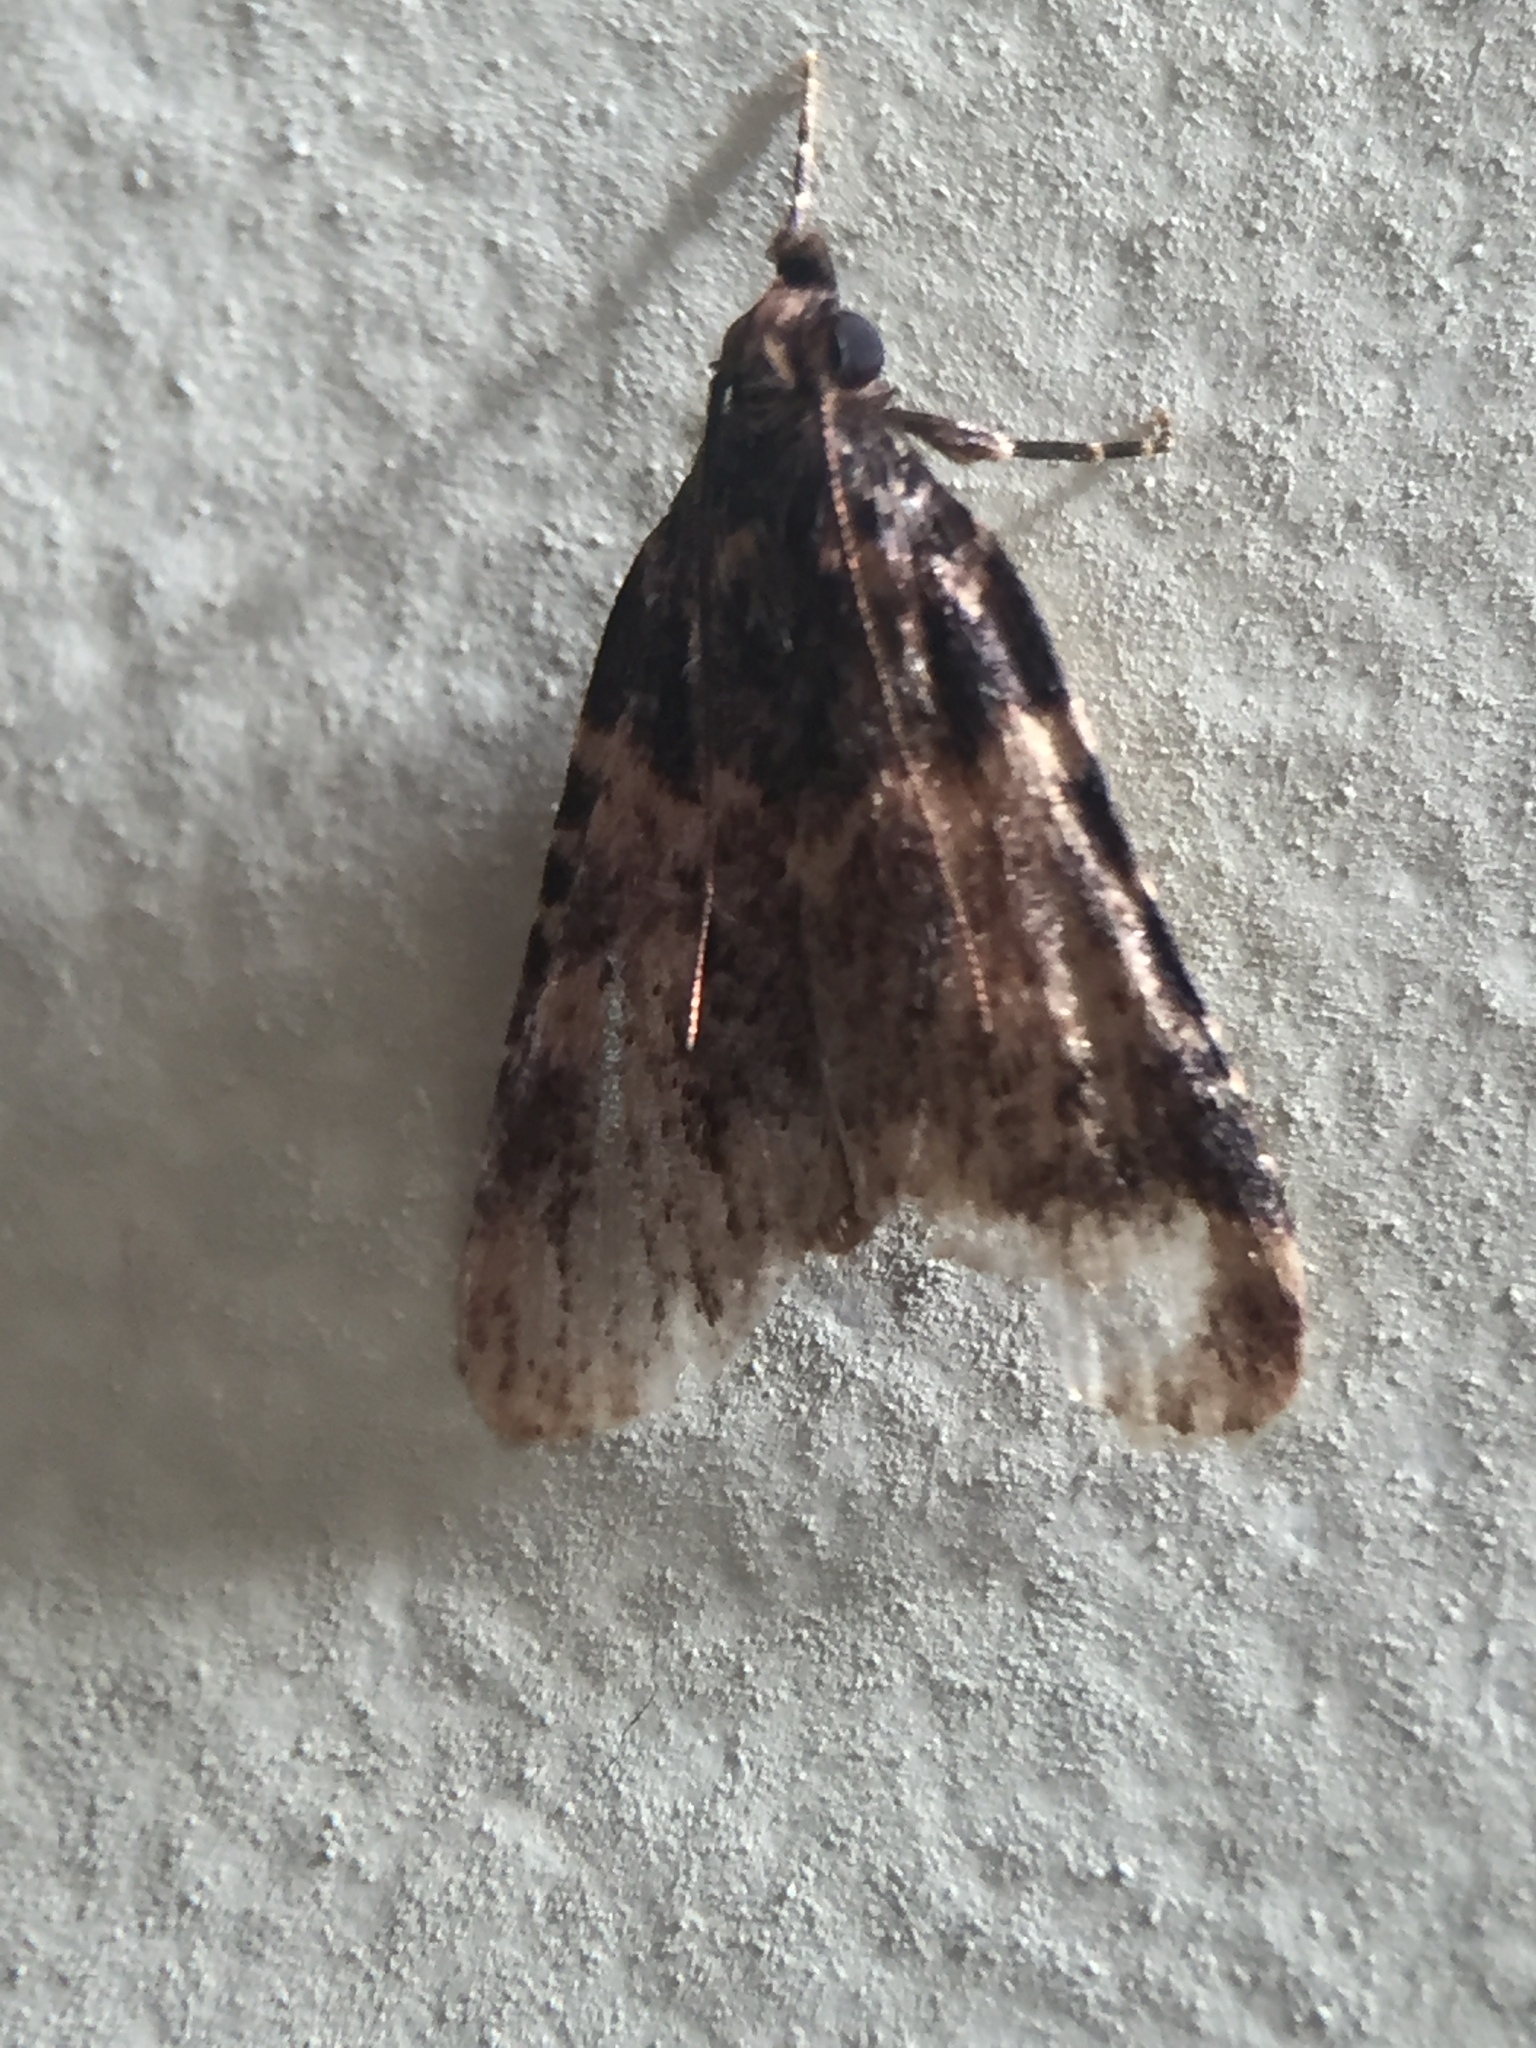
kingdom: Animalia
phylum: Arthropoda
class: Insecta
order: Lepidoptera
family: Pyralidae
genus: Aglossa
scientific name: Aglossa caprealis
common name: Small tabby
